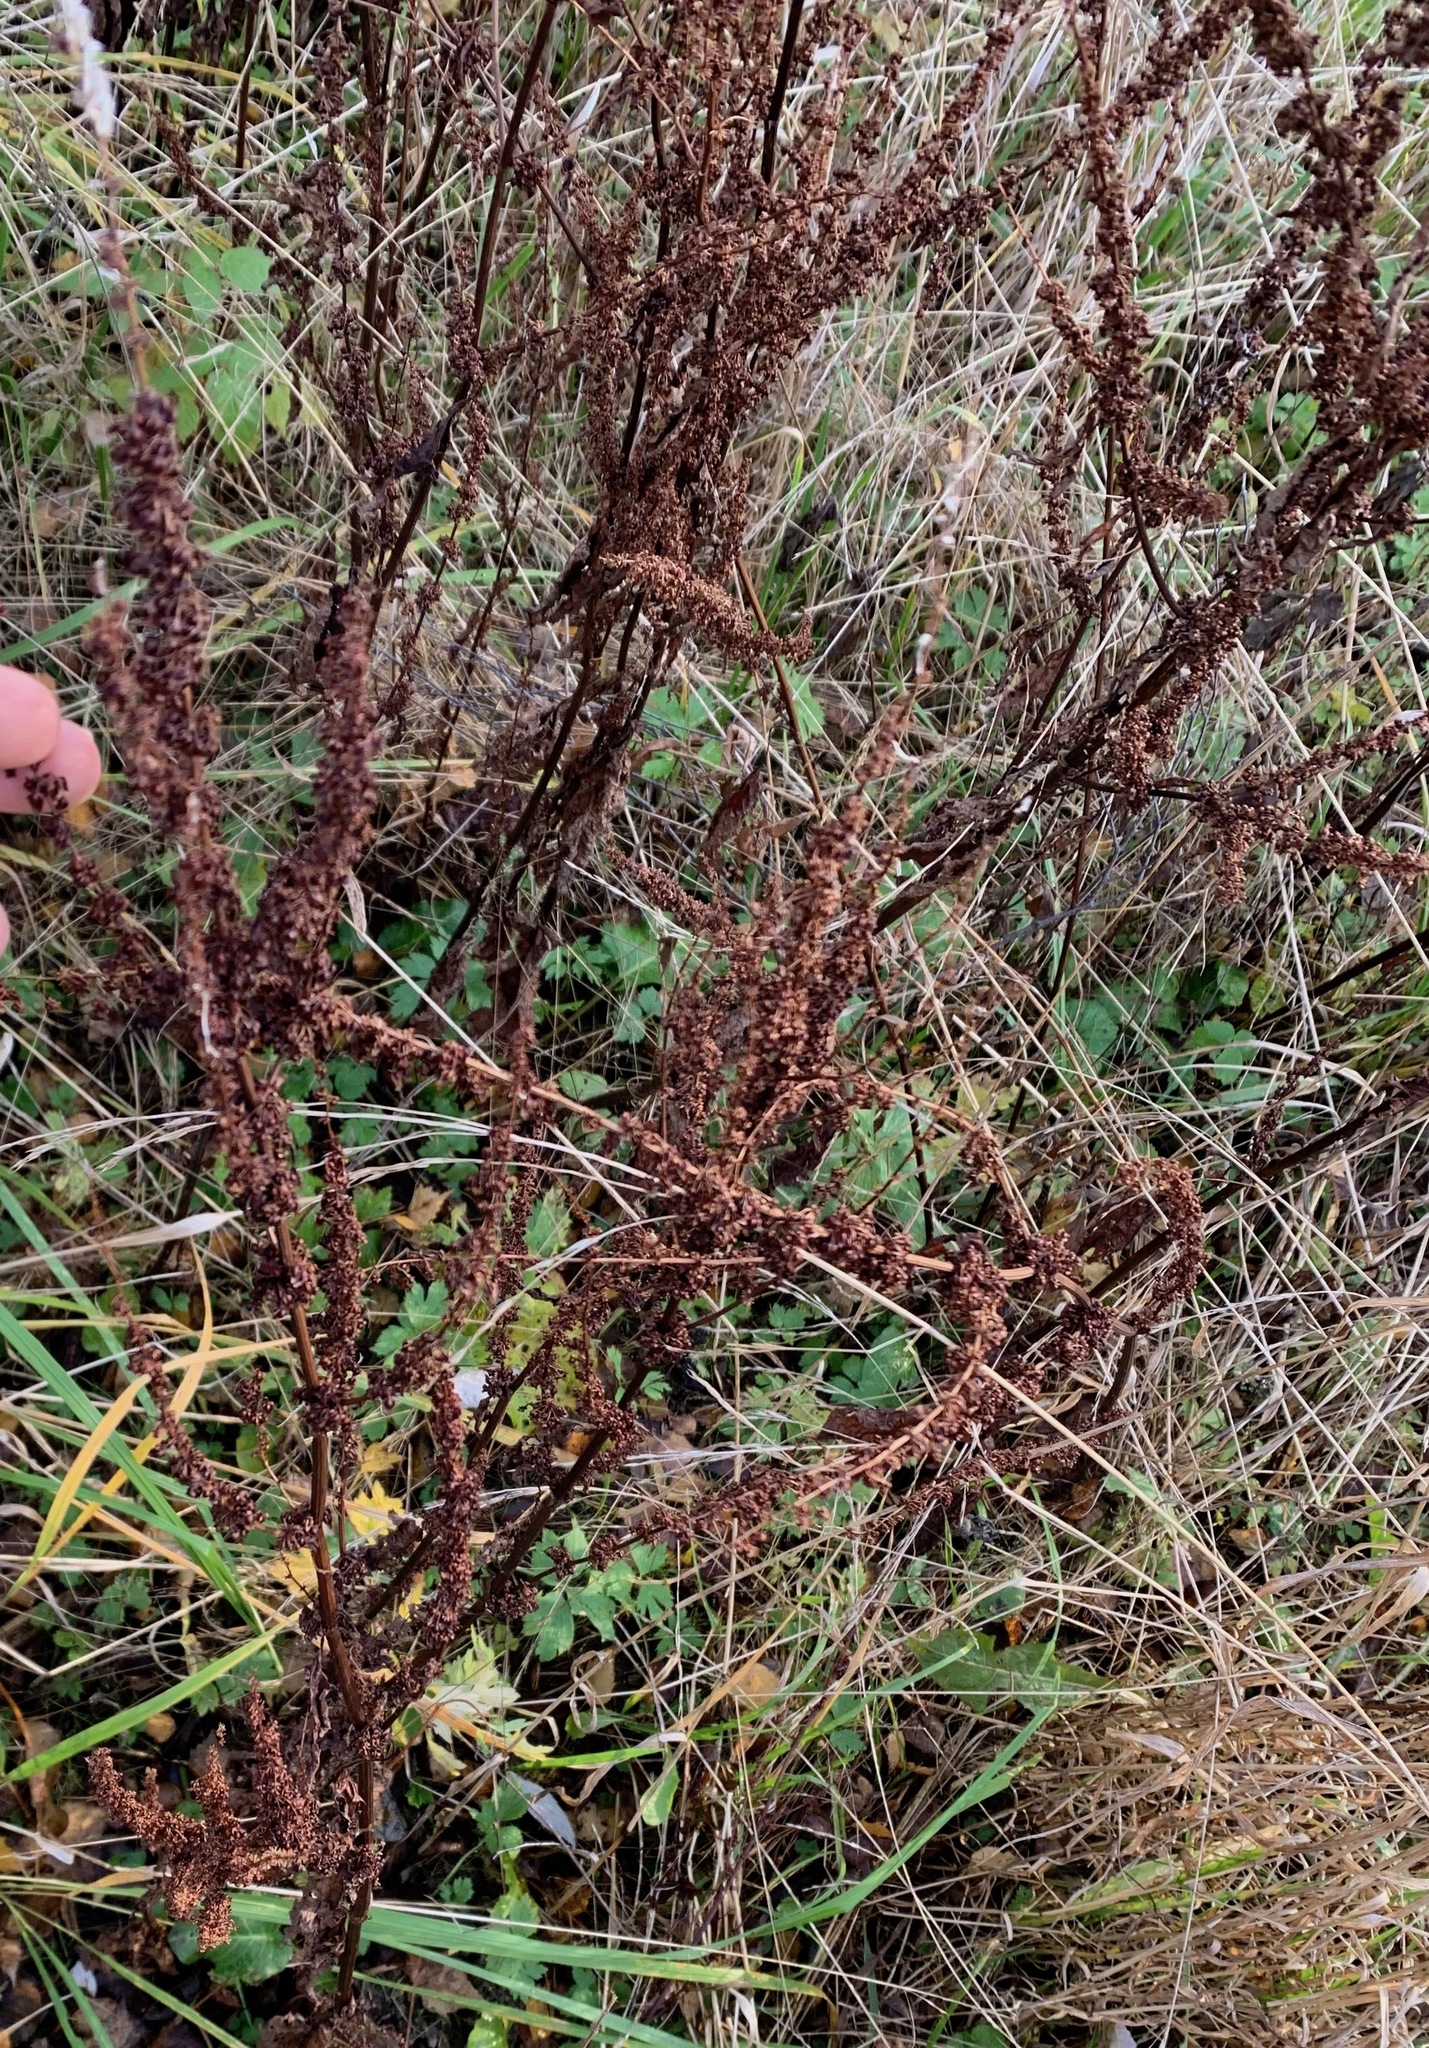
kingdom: Plantae
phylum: Tracheophyta
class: Magnoliopsida
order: Caryophyllales
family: Polygonaceae
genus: Rumex
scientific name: Rumex obtusifolius
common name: Bitter dock
